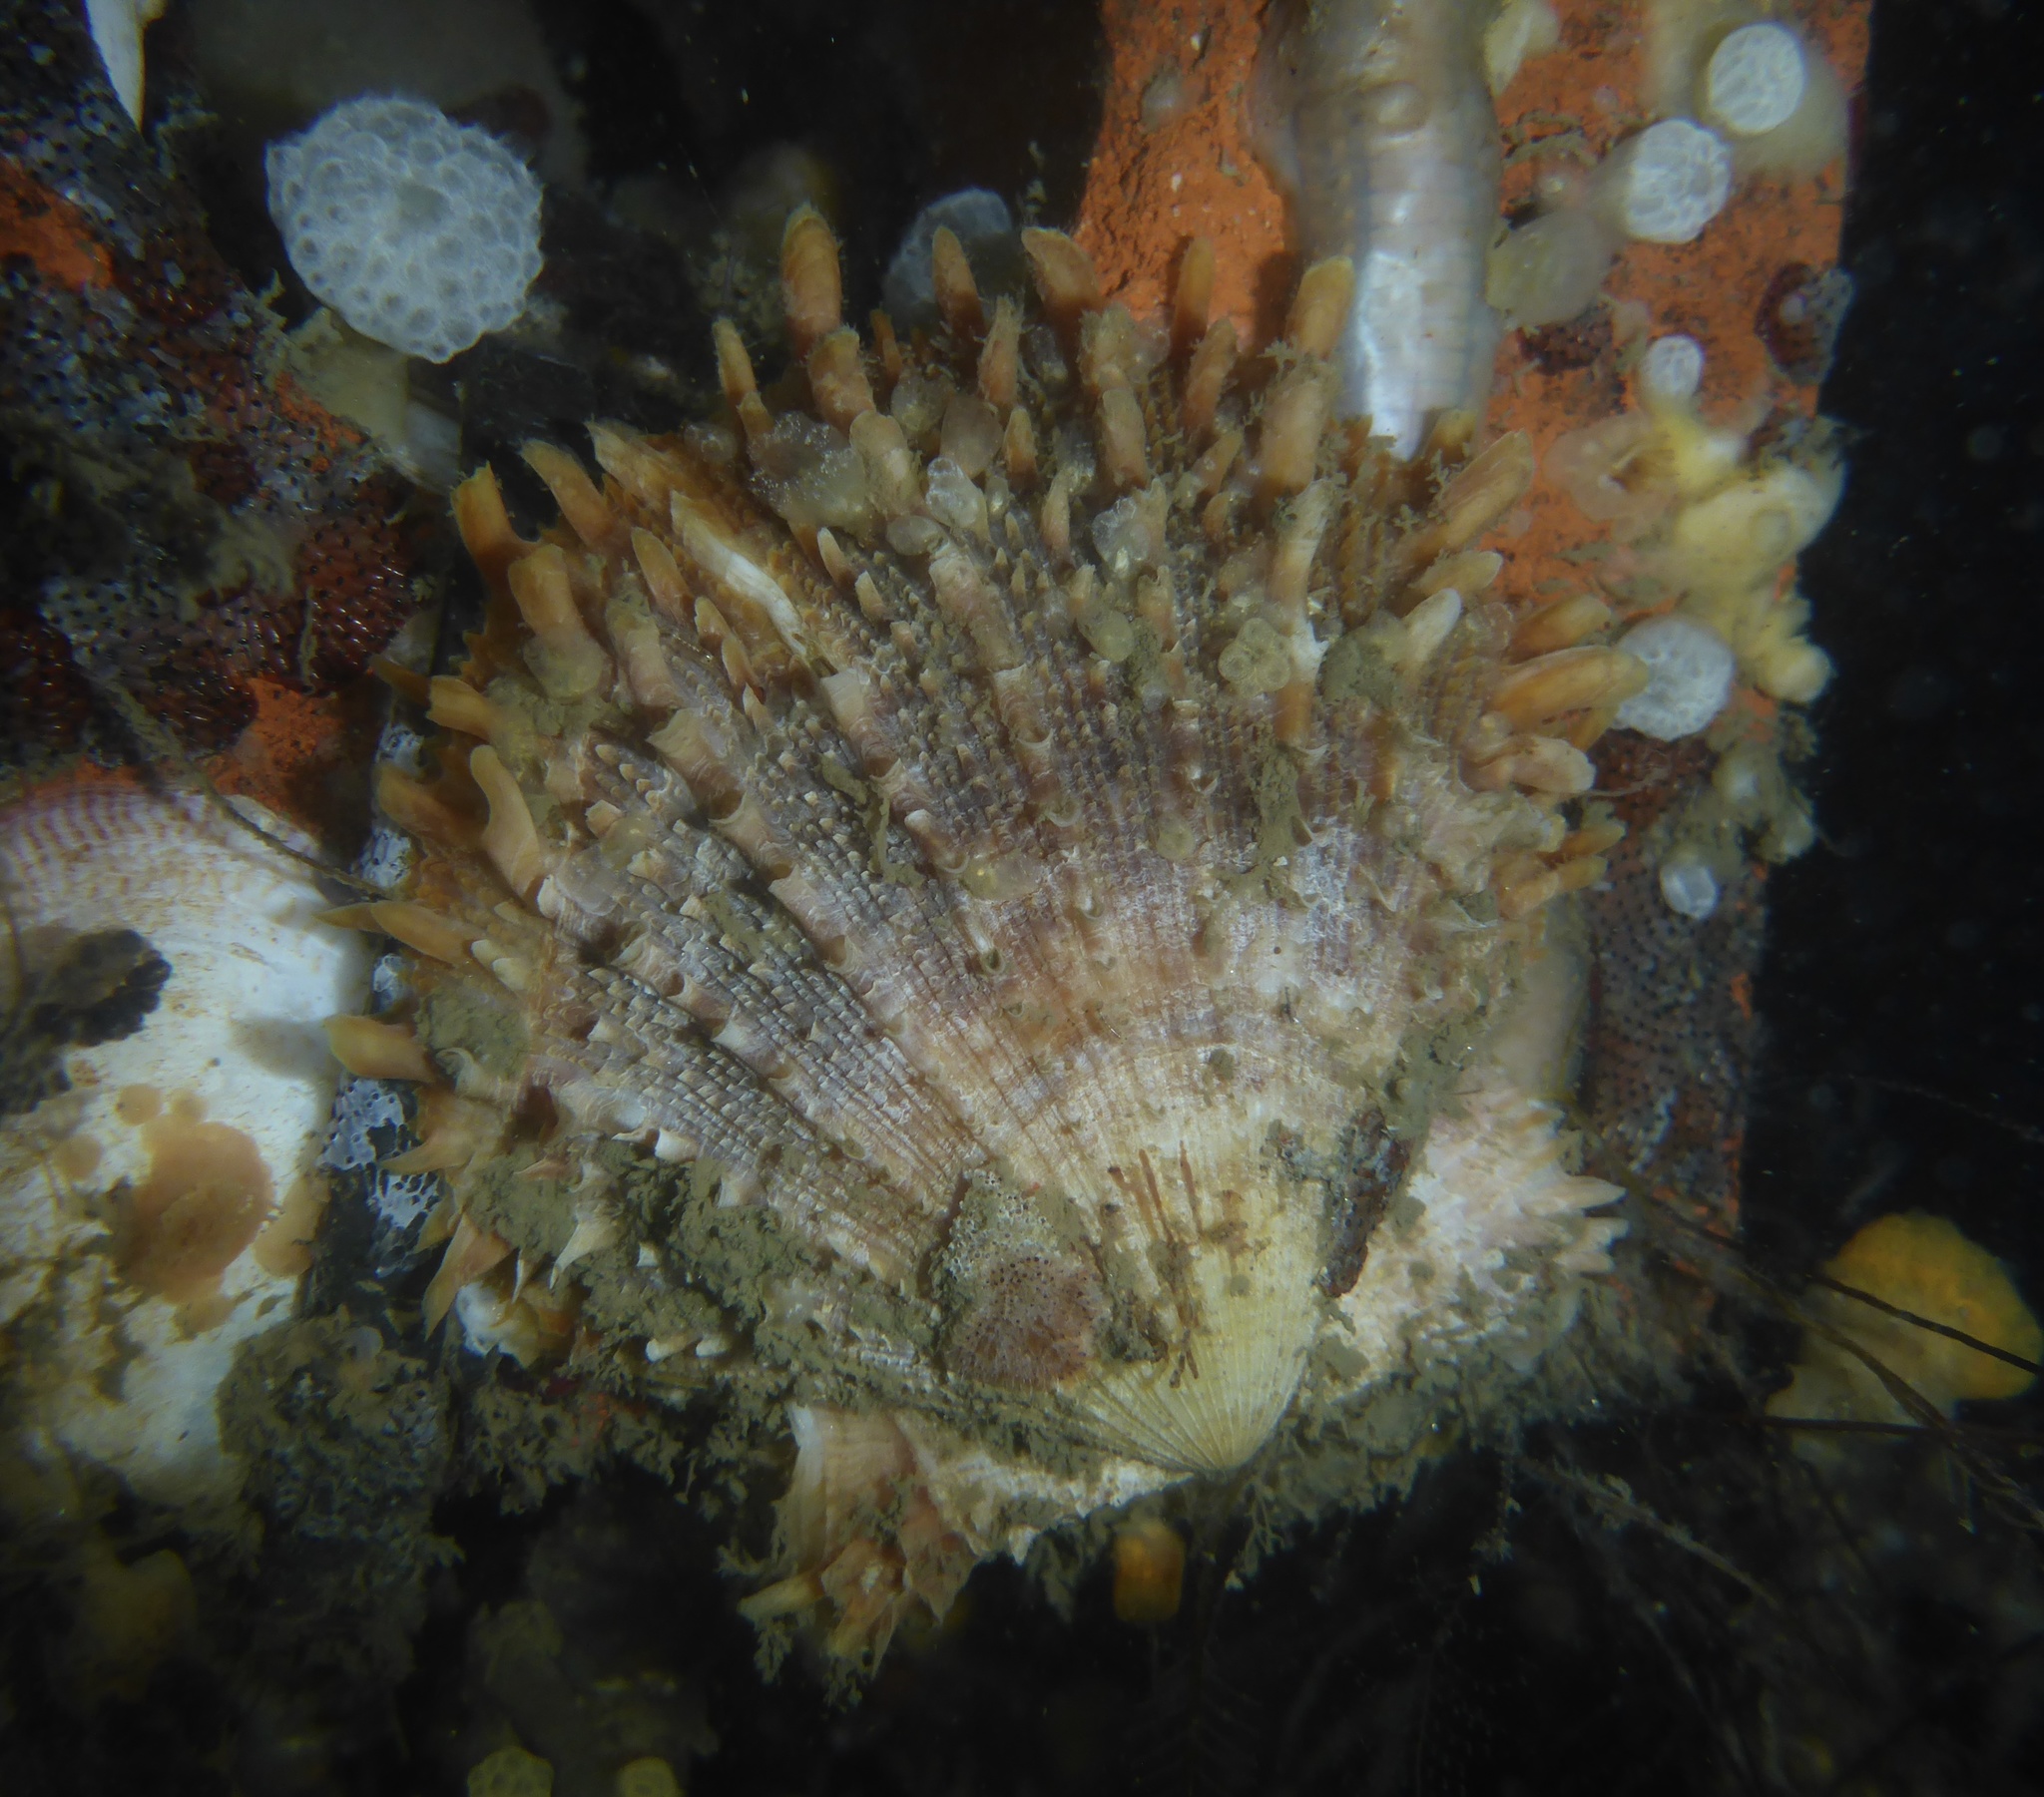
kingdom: Animalia
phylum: Mollusca
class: Bivalvia
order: Pectinida
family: Pectinidae
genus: Crassadoma
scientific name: Crassadoma gigantea
